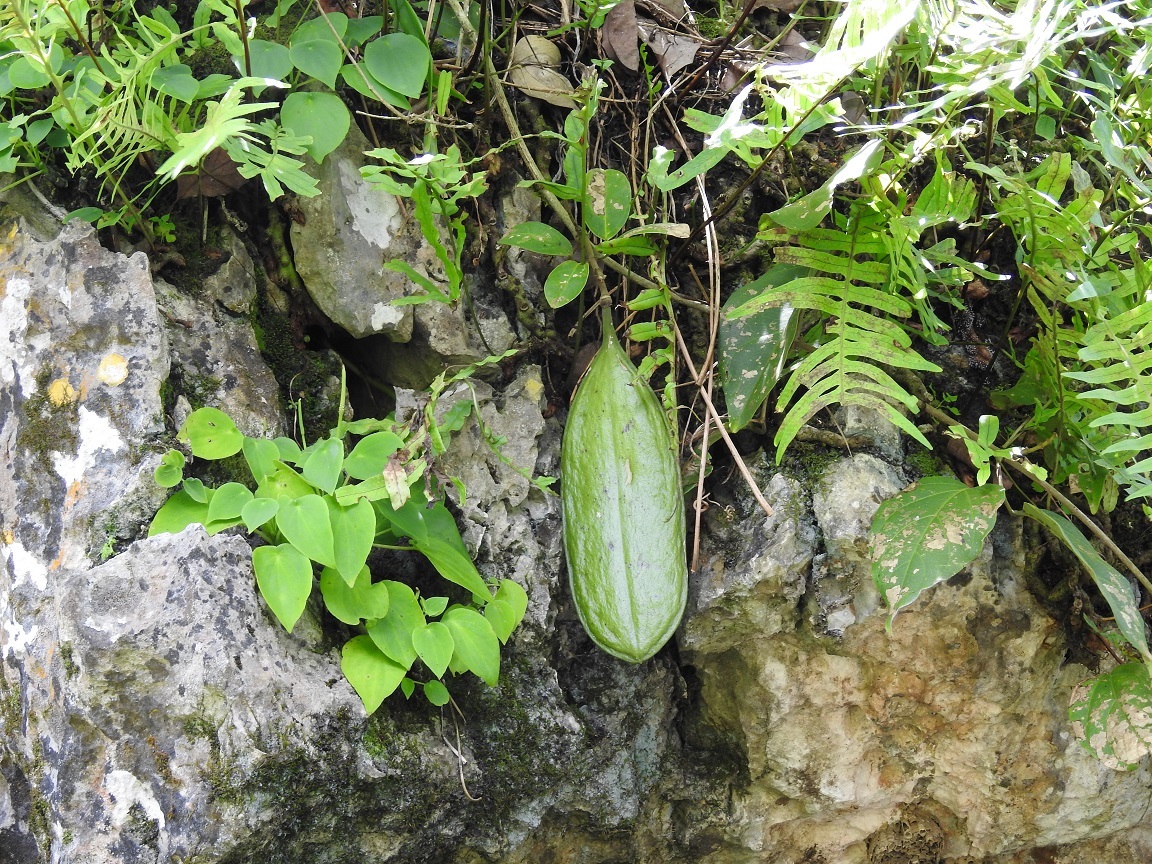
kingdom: Plantae
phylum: Tracheophyta
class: Magnoliopsida
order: Lamiales
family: Bignoniaceae
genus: Anemopaegma
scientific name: Anemopaegma puberulum
